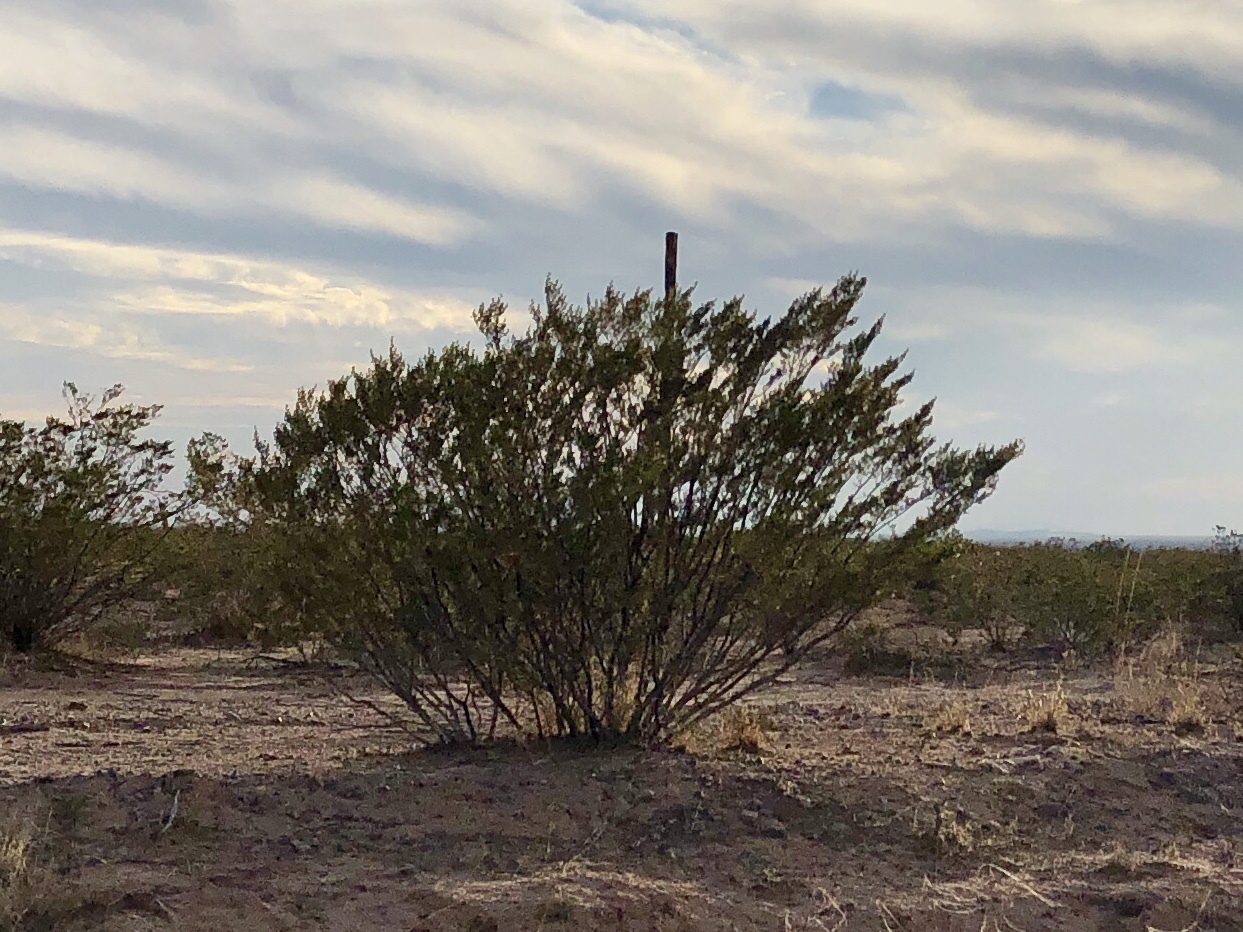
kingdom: Plantae
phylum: Tracheophyta
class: Magnoliopsida
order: Zygophyllales
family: Zygophyllaceae
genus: Larrea
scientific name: Larrea tridentata
